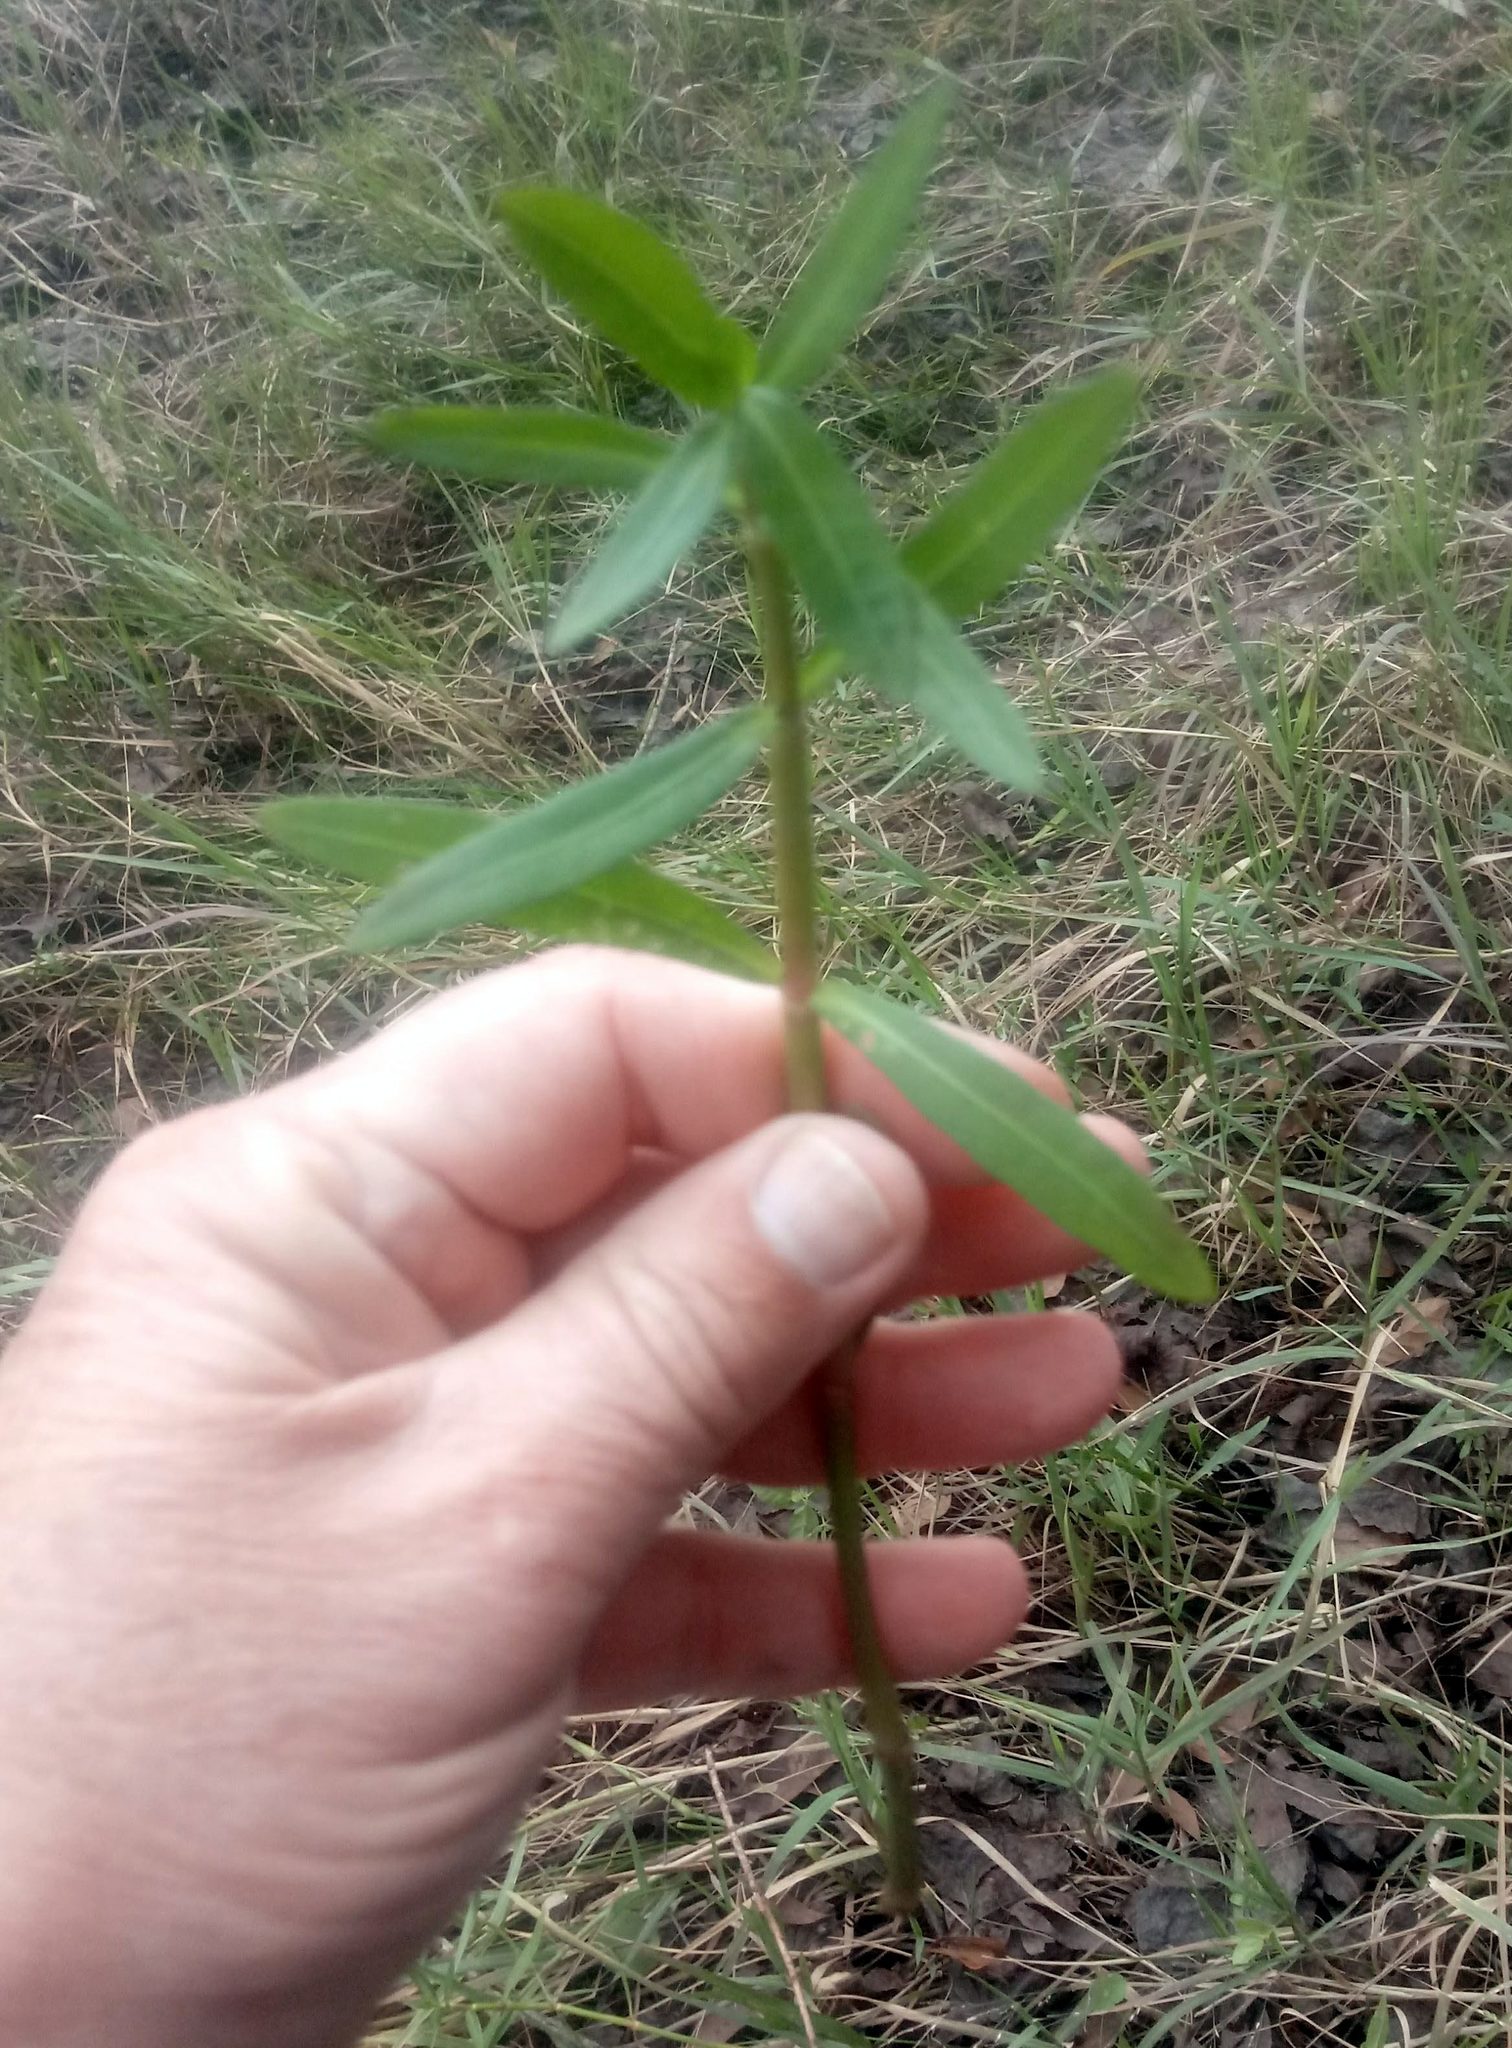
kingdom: Plantae
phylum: Tracheophyta
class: Magnoliopsida
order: Caryophyllales
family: Amaranthaceae
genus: Alternanthera
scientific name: Alternanthera philoxeroides
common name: Alligatorweed
